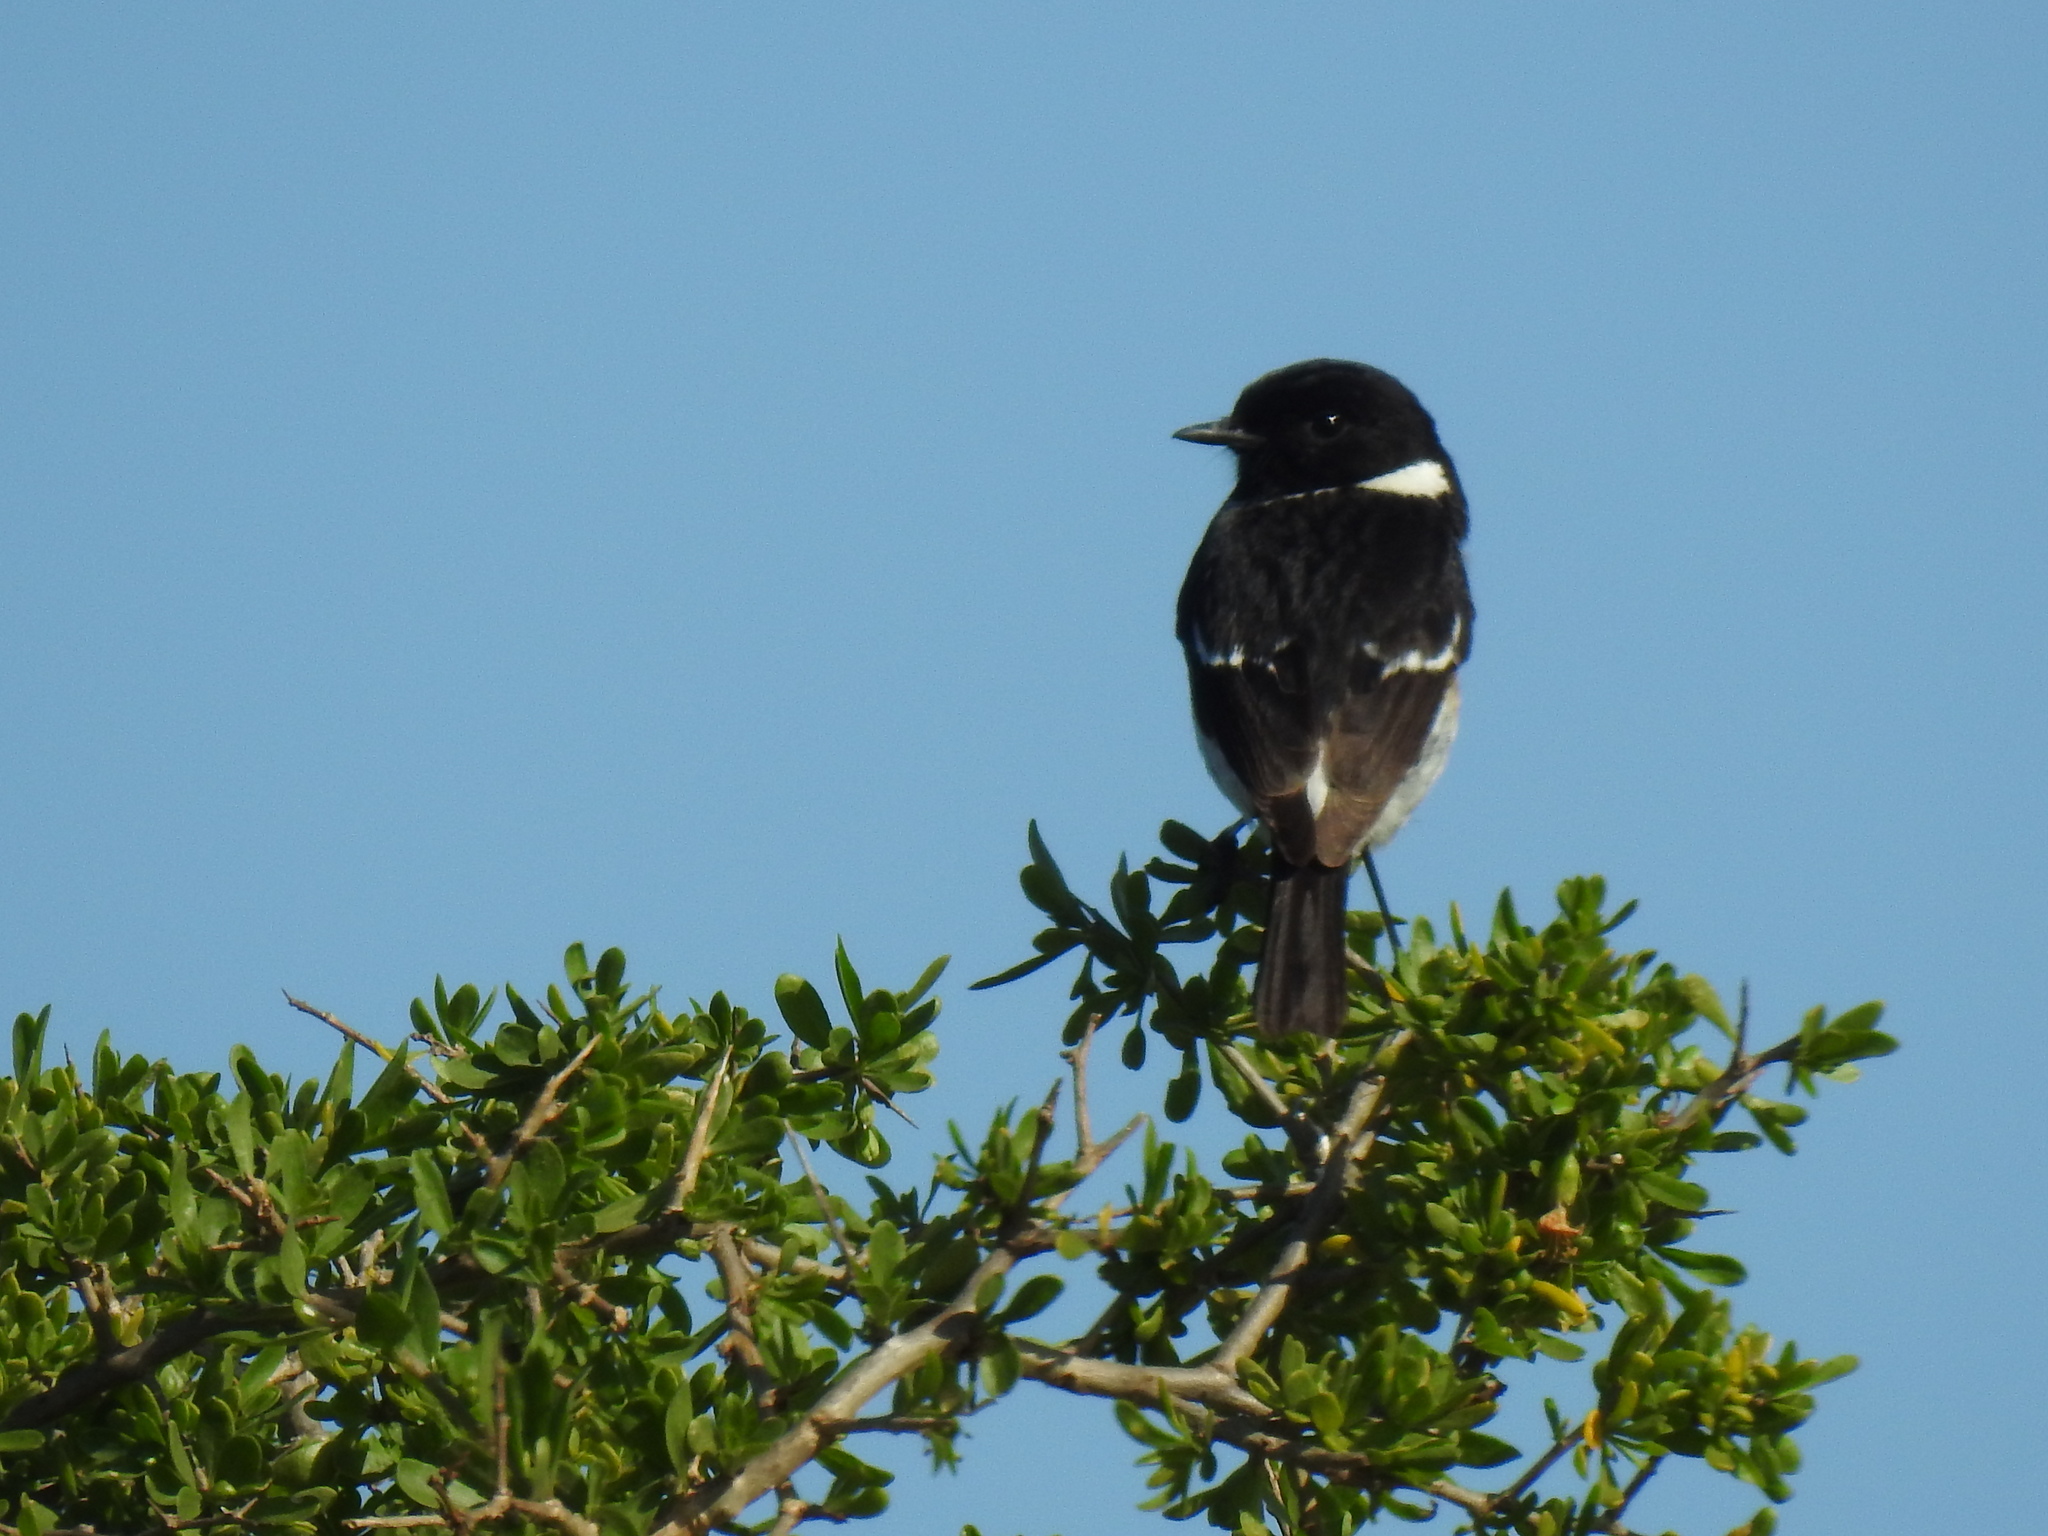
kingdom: Animalia
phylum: Chordata
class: Aves
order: Passeriformes
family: Muscicapidae
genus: Saxicola
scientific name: Saxicola torquatus
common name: African stonechat
